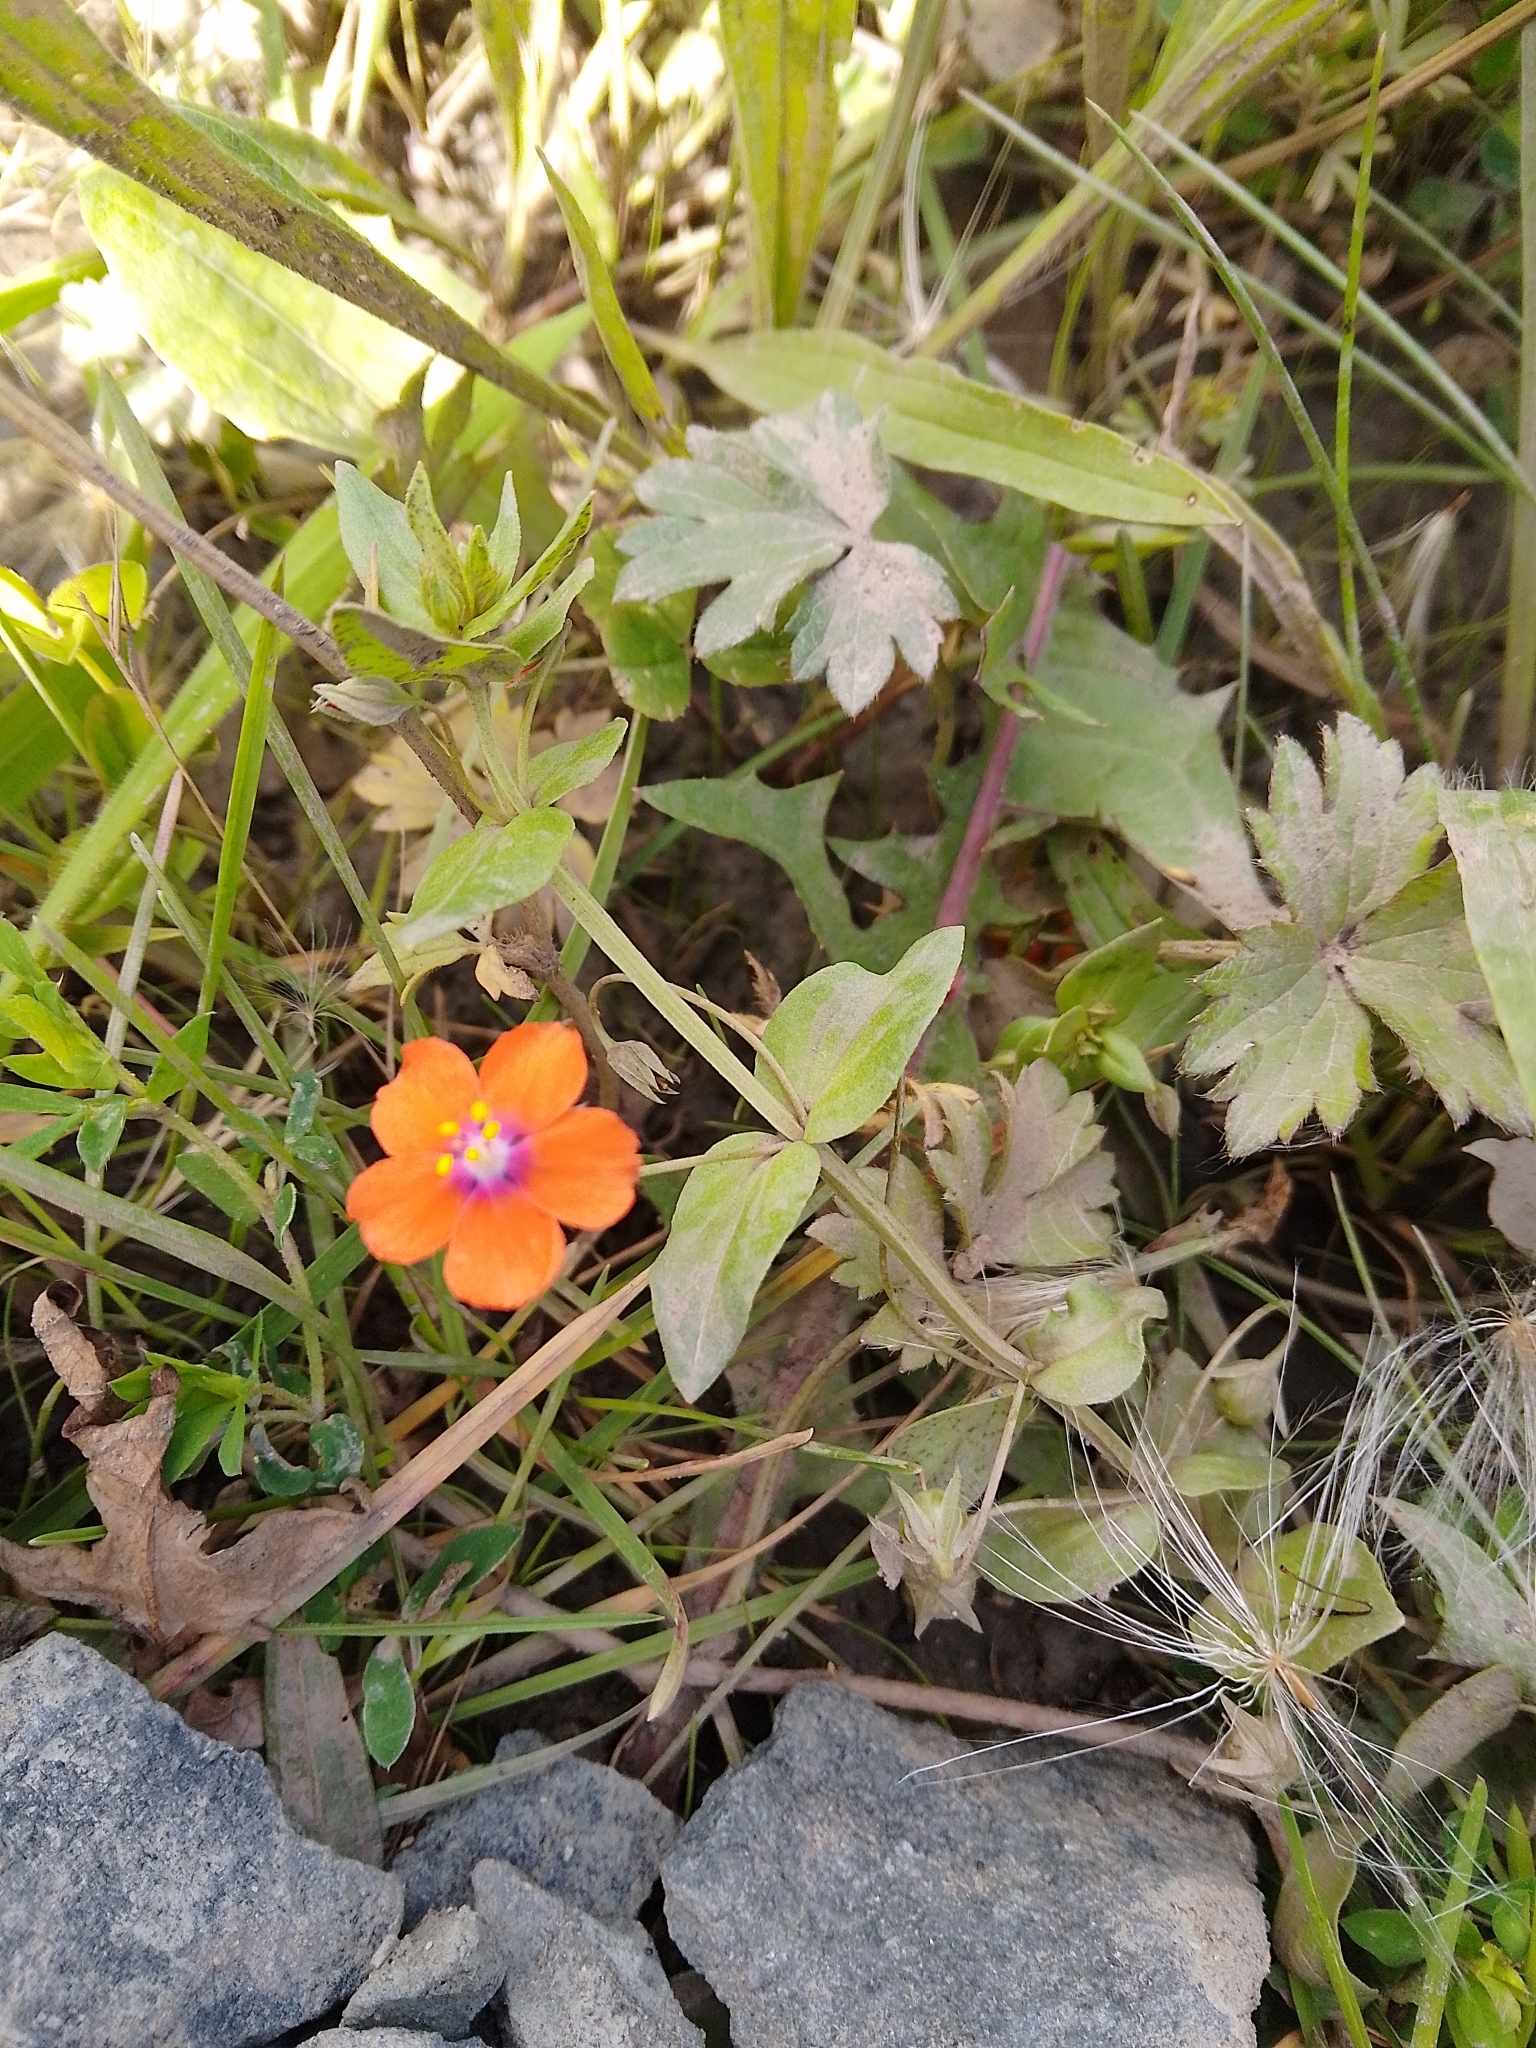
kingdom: Plantae
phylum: Tracheophyta
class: Magnoliopsida
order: Ericales
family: Primulaceae
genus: Lysimachia
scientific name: Lysimachia arvensis
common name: Scarlet pimpernel
